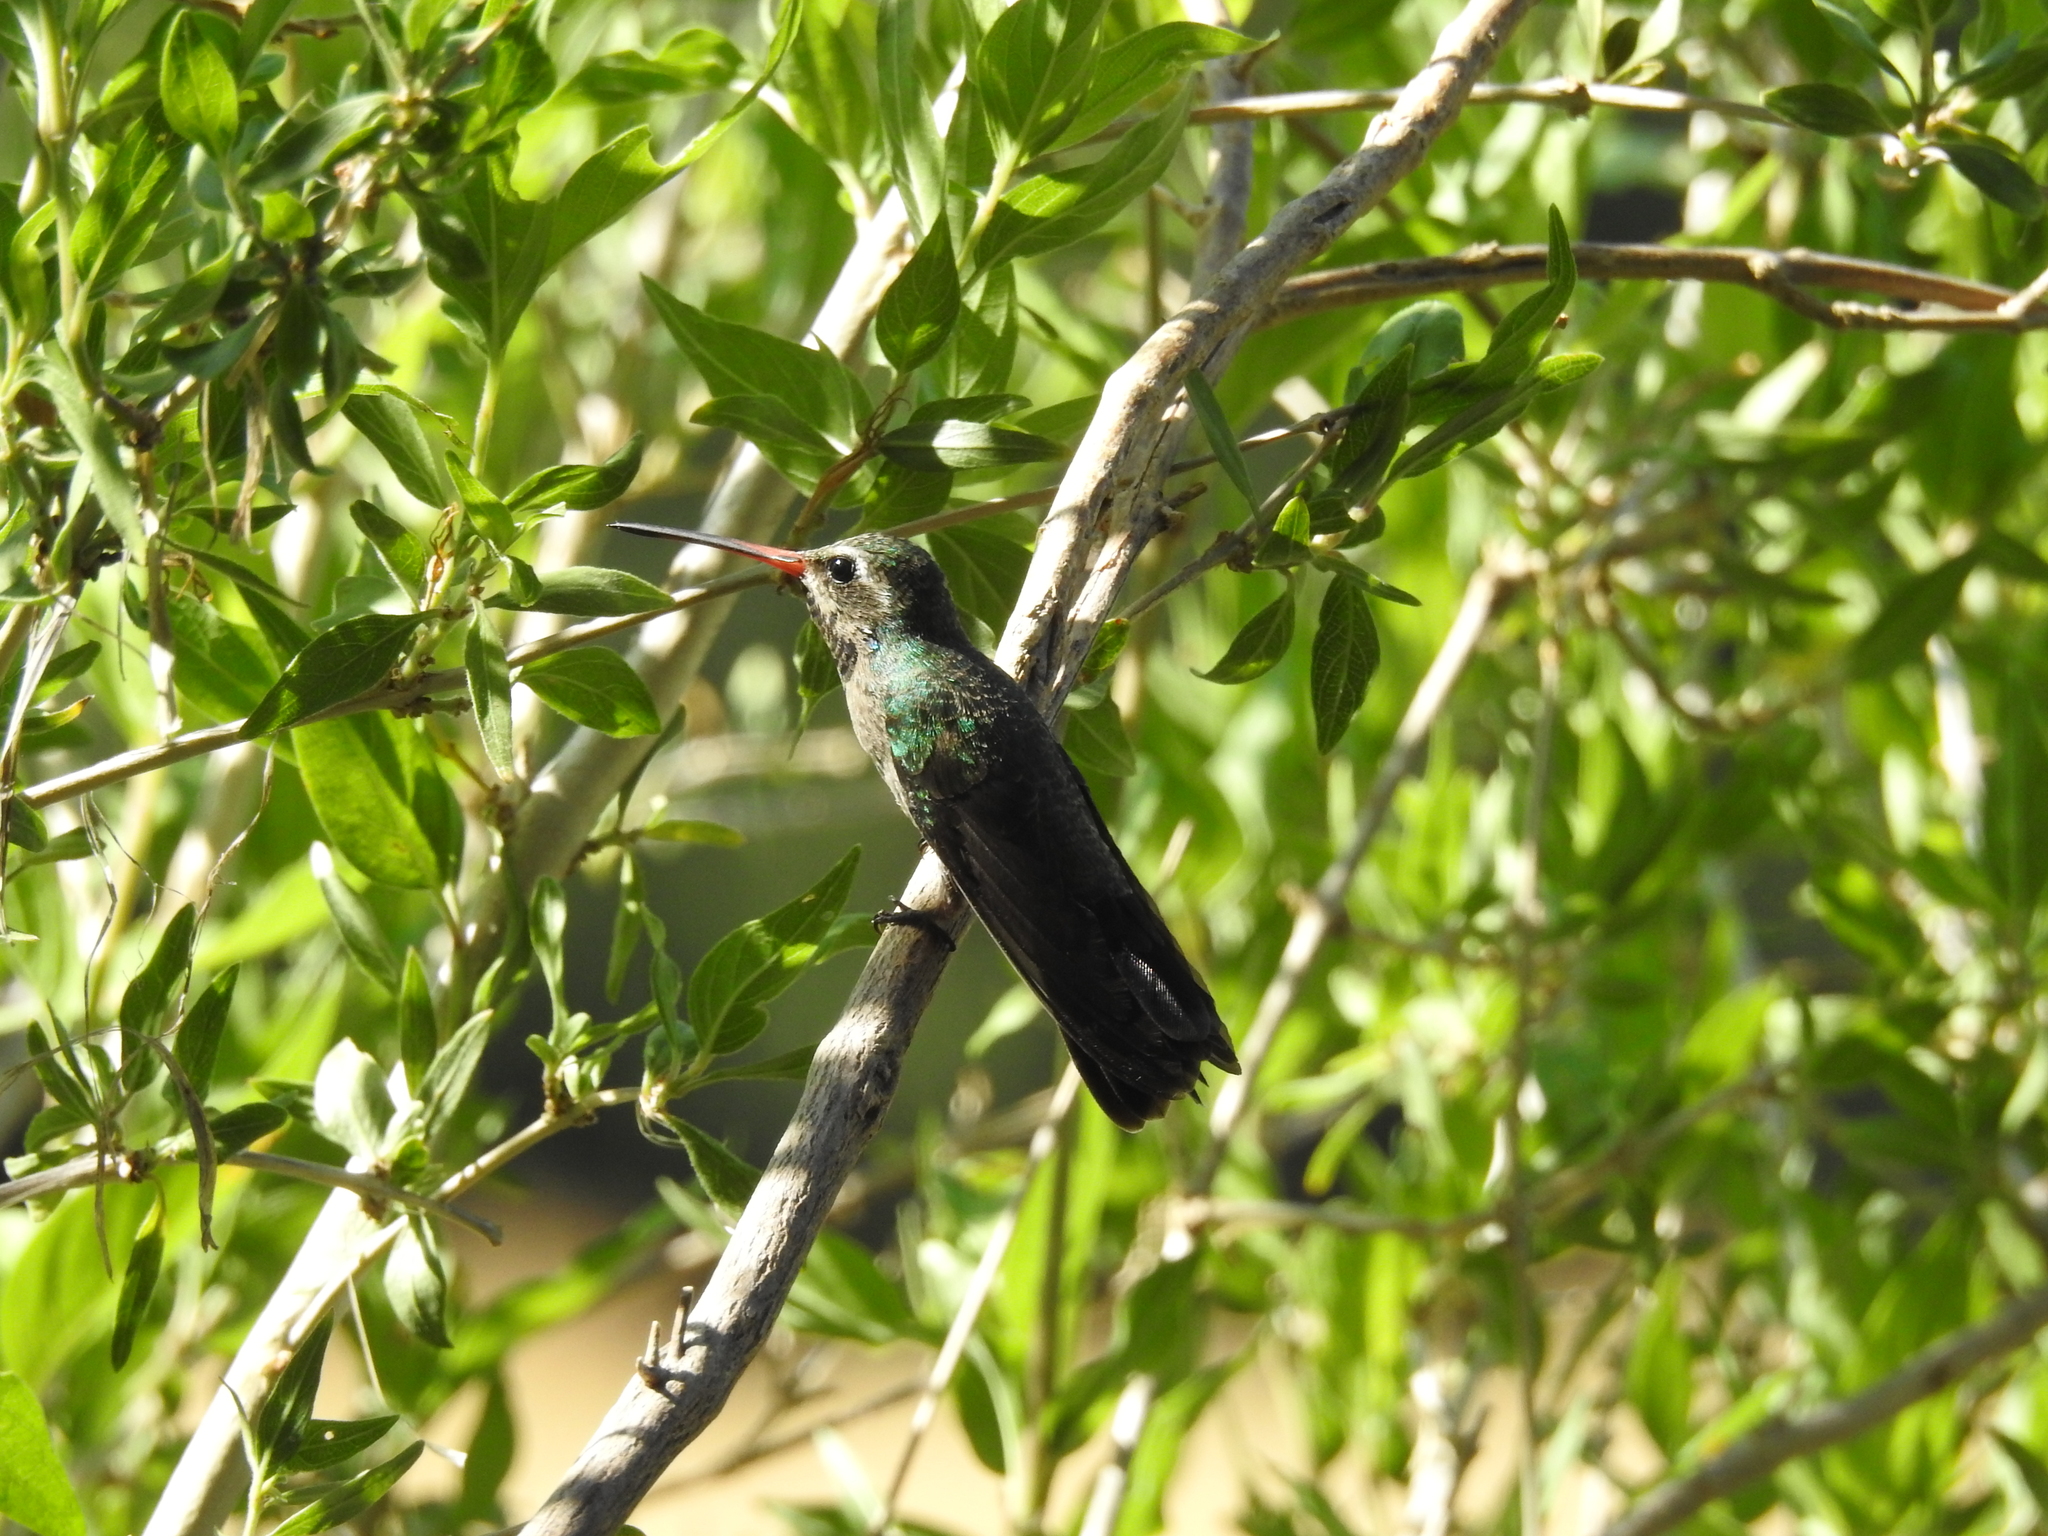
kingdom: Animalia
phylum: Chordata
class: Aves
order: Apodiformes
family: Trochilidae
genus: Cynanthus
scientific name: Cynanthus latirostris
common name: Broad-billed hummingbird
